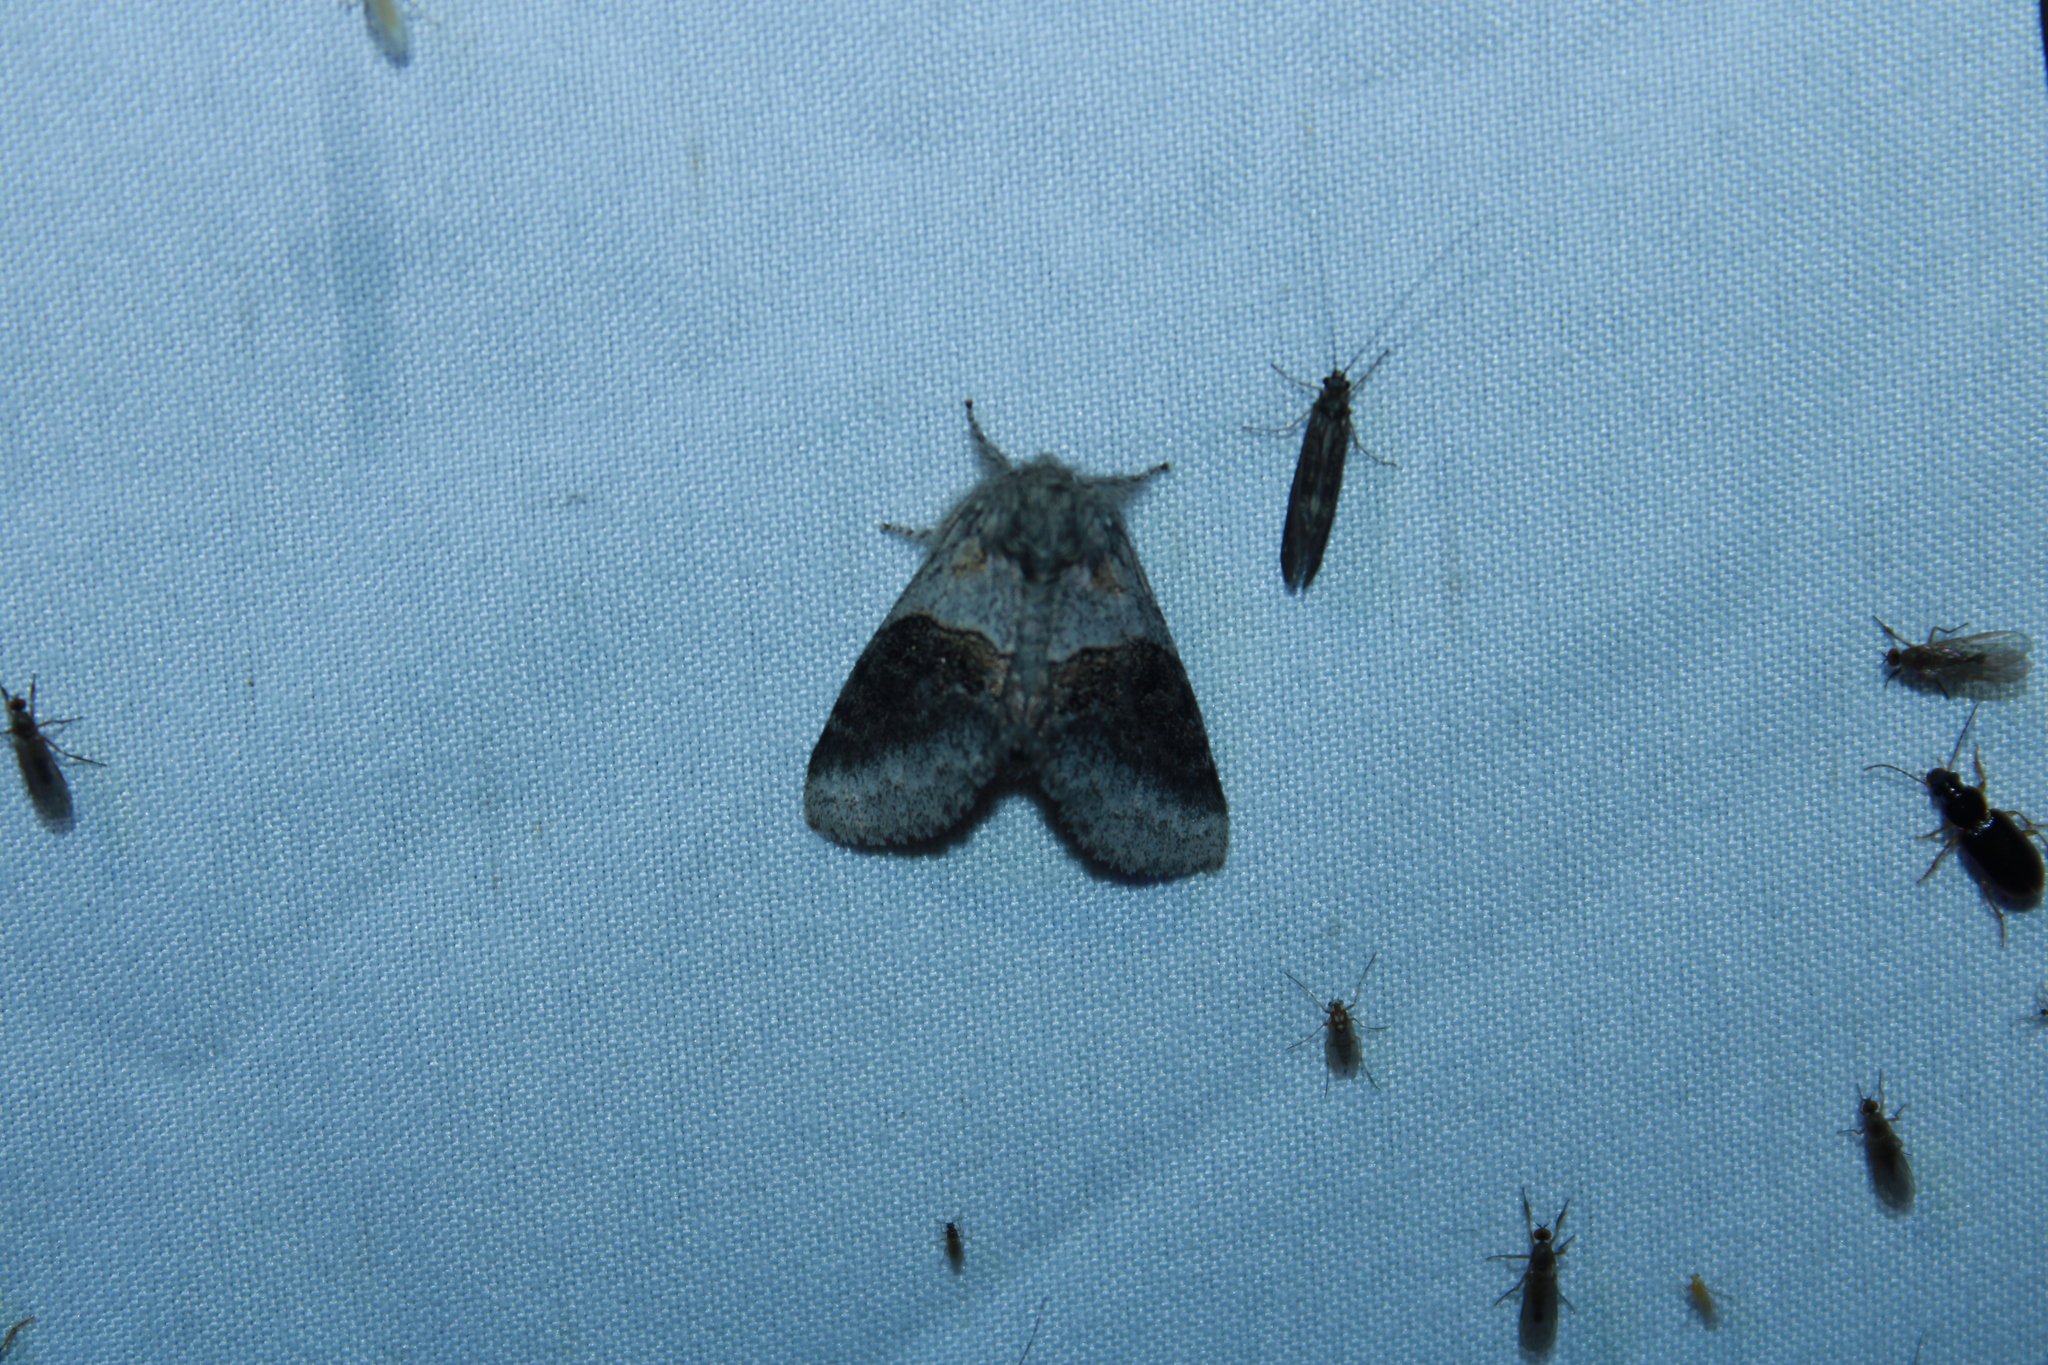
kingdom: Animalia
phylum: Arthropoda
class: Insecta
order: Lepidoptera
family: Notodontidae
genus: Gluphisia
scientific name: Gluphisia septentrionis
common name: Common gluphisia
